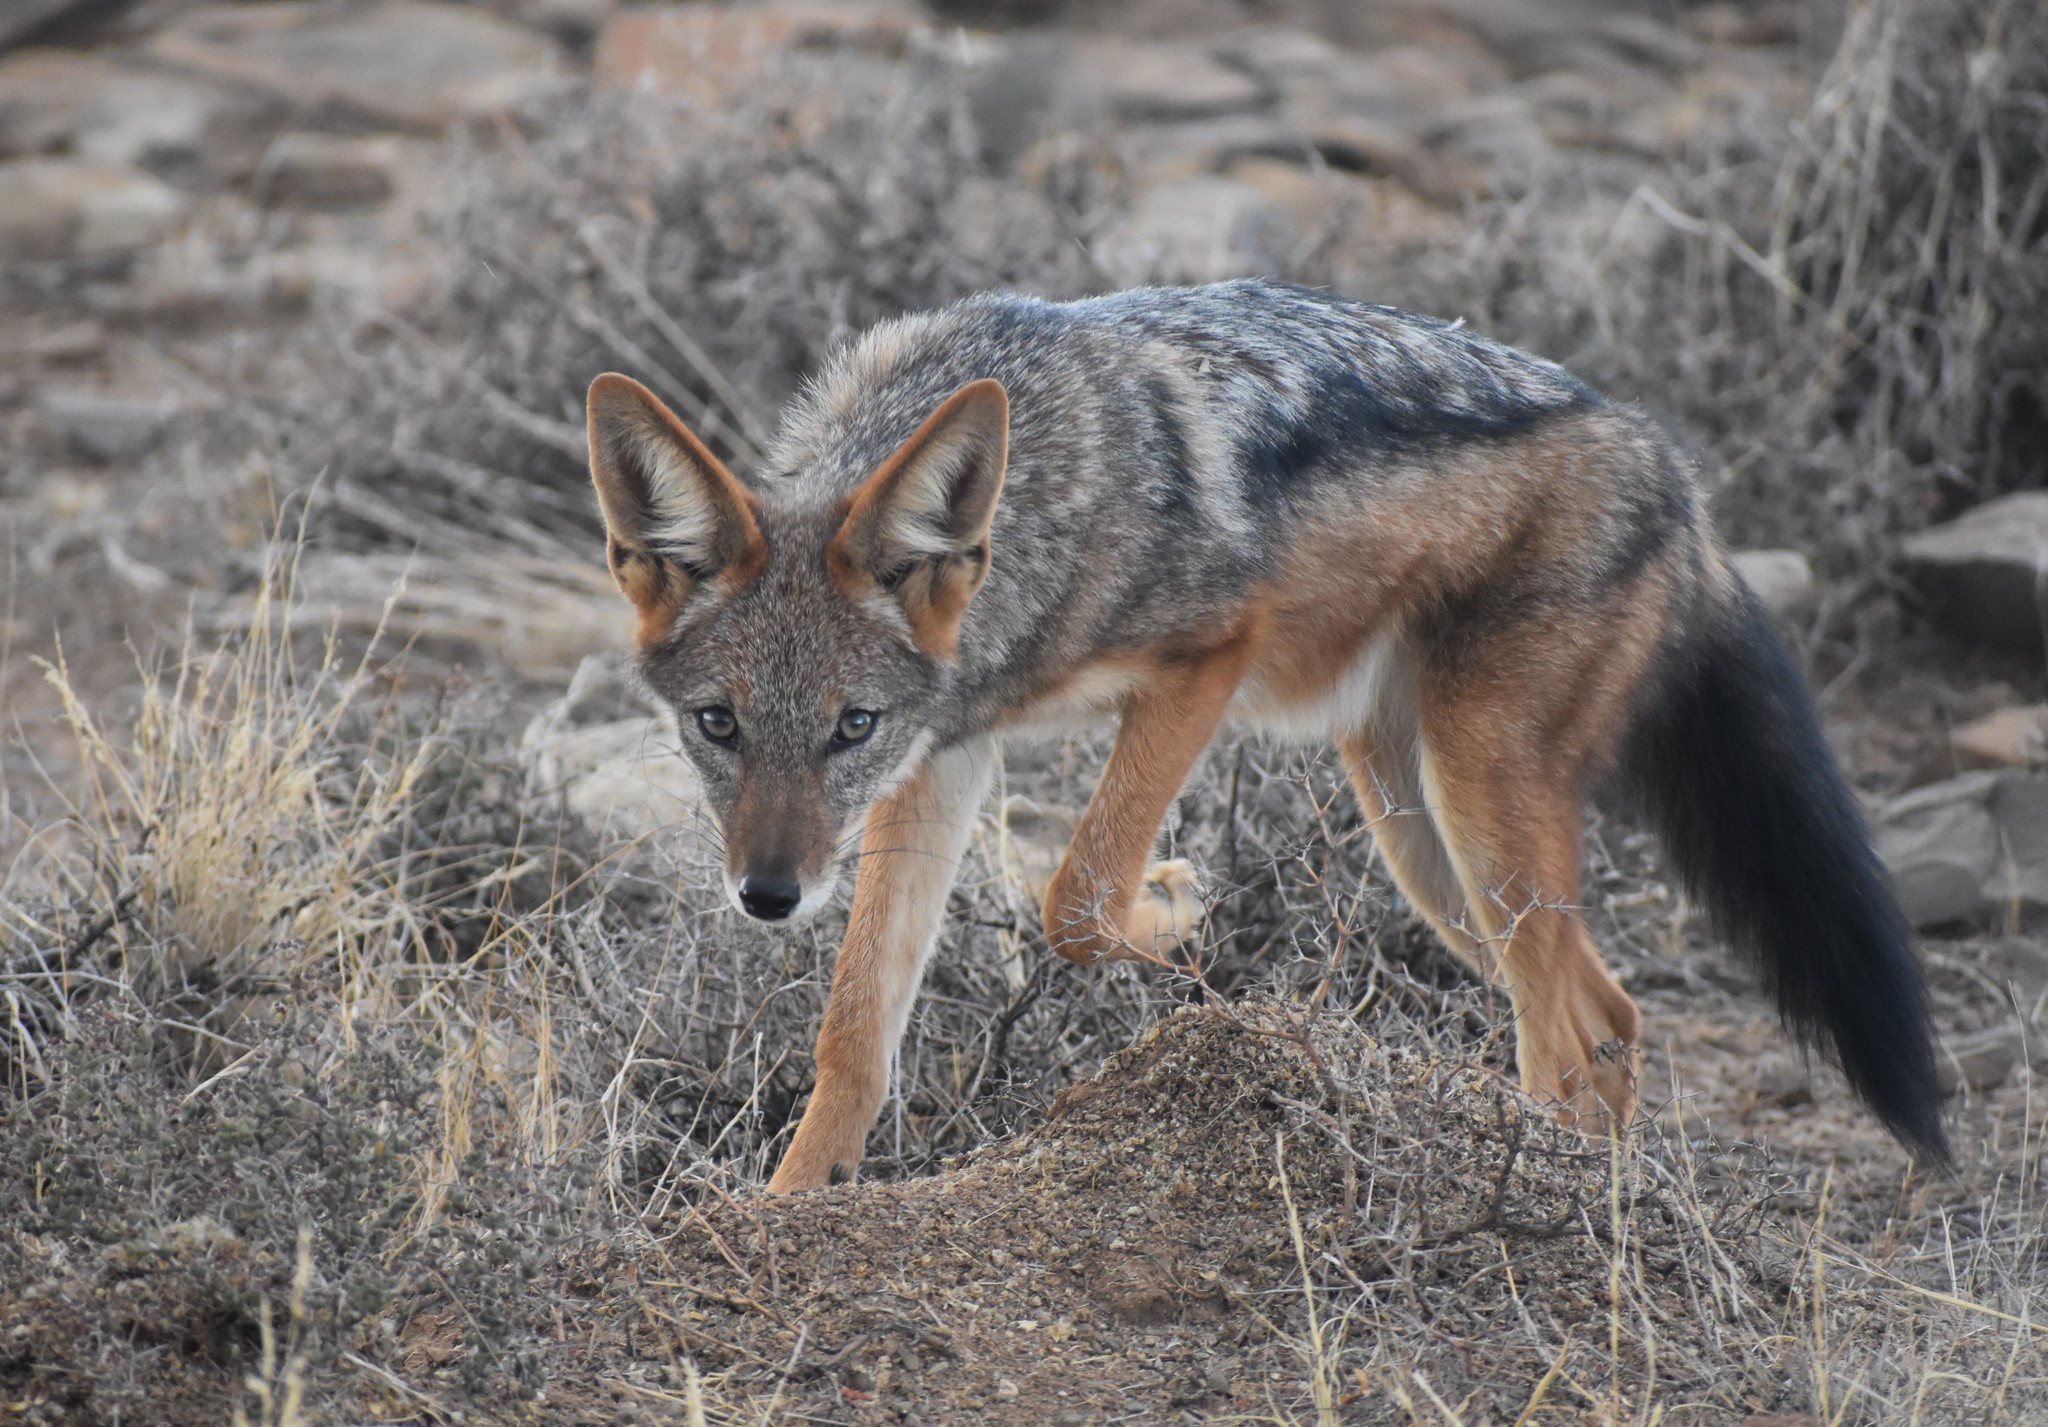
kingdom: Animalia
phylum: Chordata
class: Mammalia
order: Carnivora
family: Canidae
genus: Lupulella
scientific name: Lupulella
